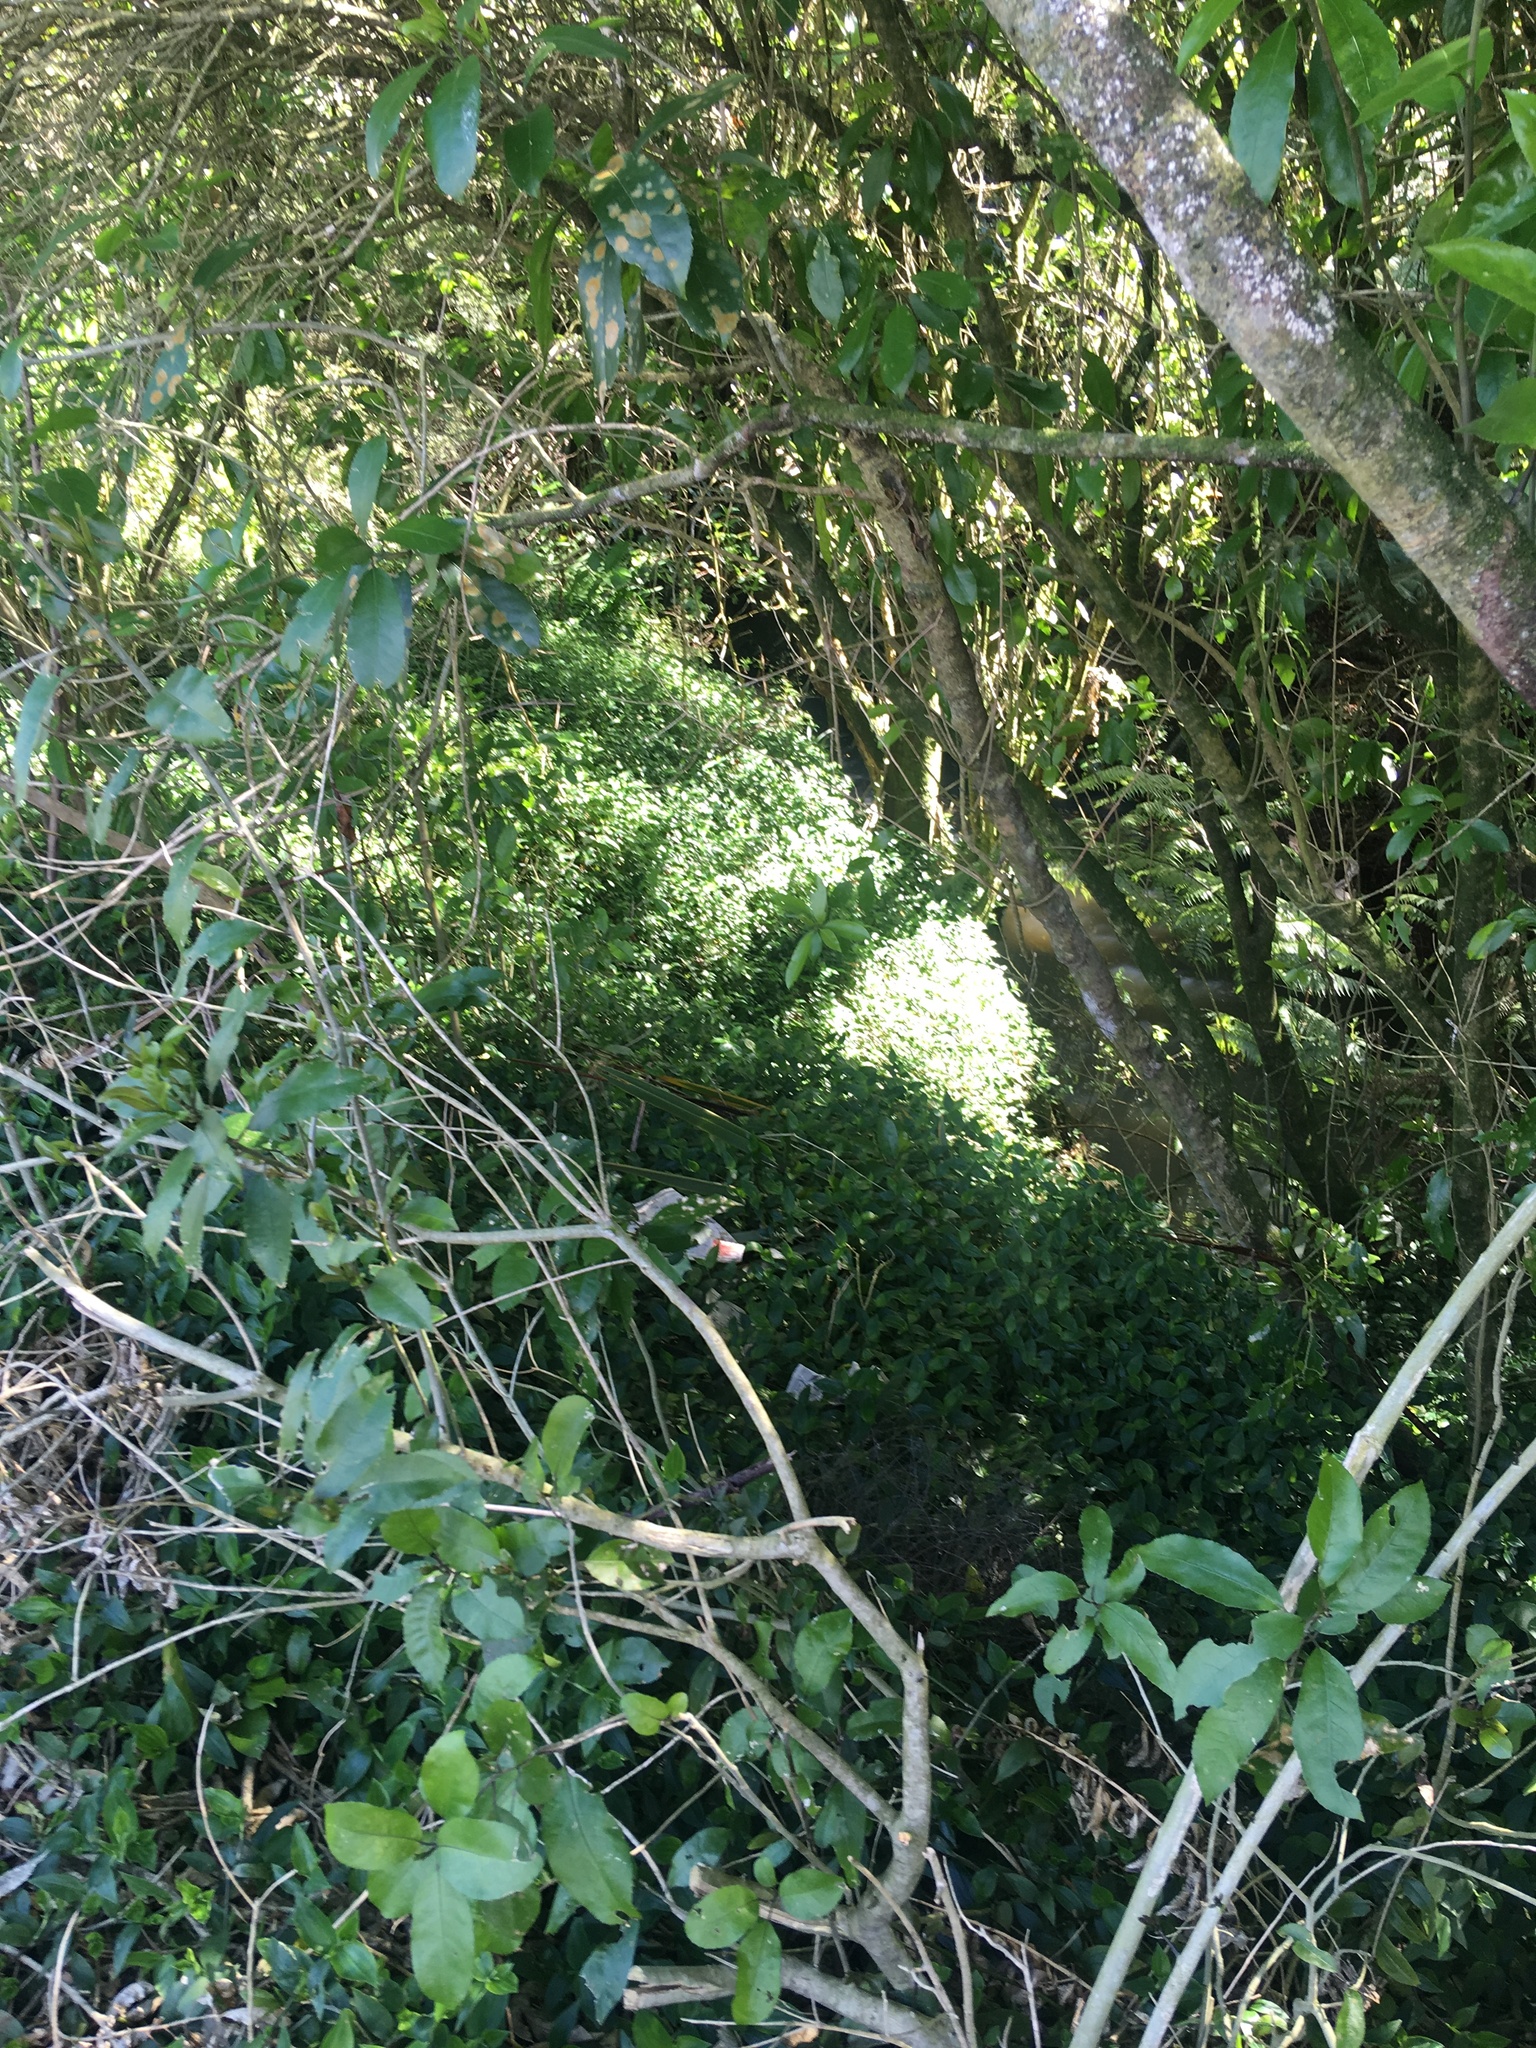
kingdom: Plantae
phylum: Tracheophyta
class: Magnoliopsida
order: Malpighiales
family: Violaceae
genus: Melicytus
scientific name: Melicytus ramiflorus
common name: Mahoe
